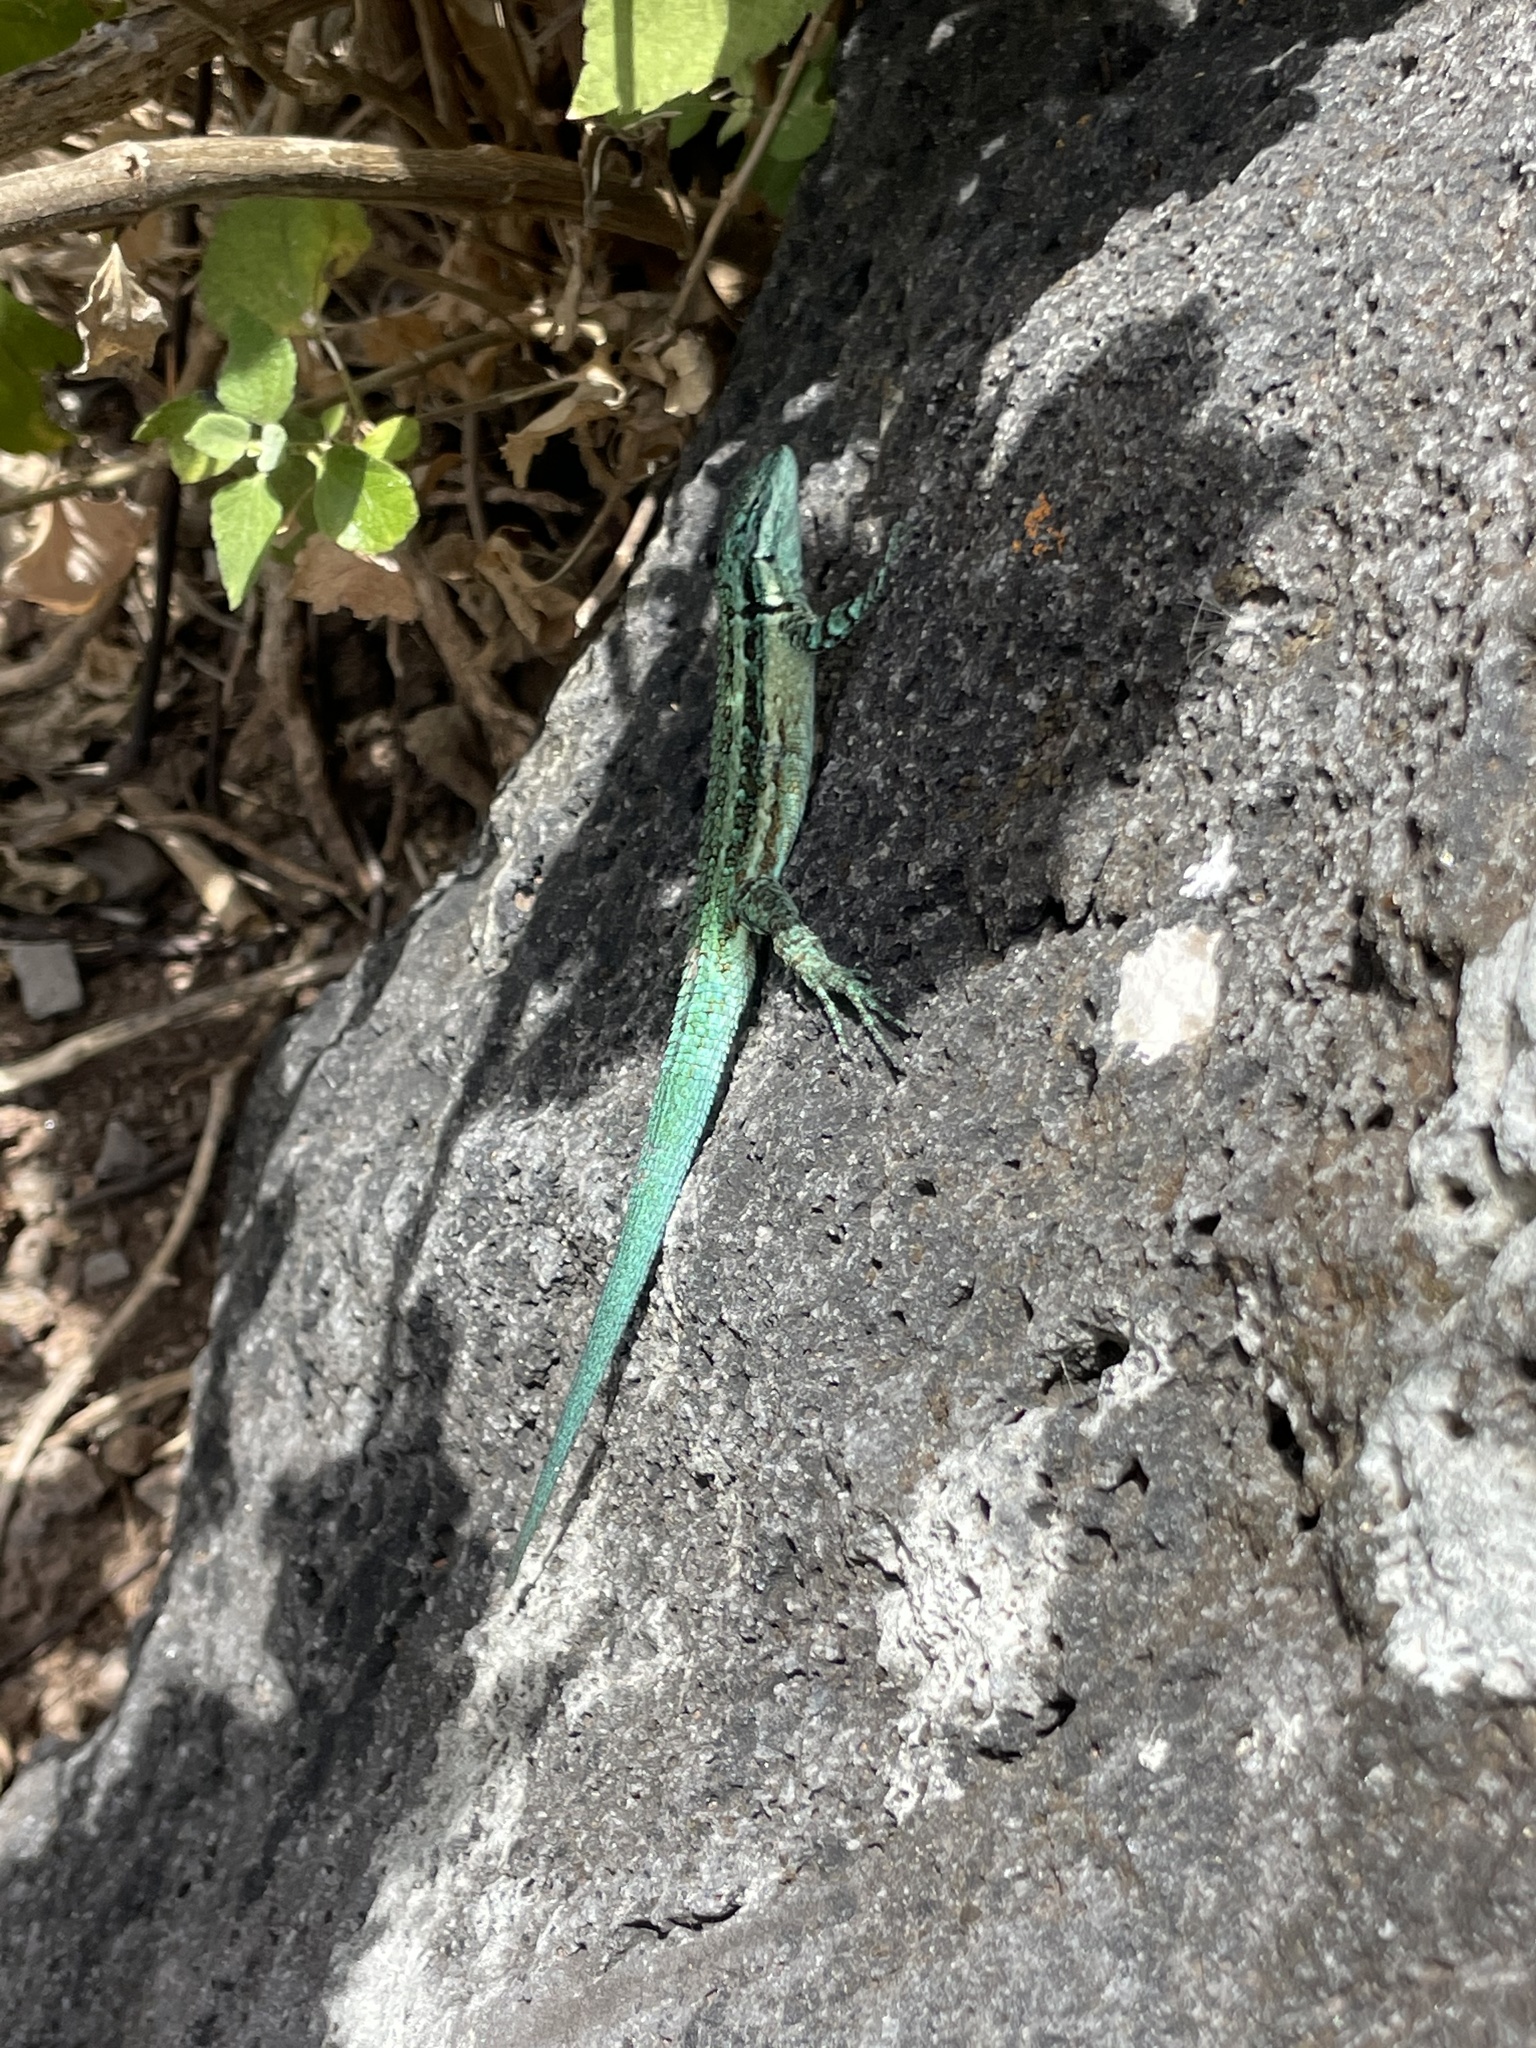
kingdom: Animalia
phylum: Chordata
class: Squamata
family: Phrynosomatidae
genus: Urosaurus
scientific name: Urosaurus clarionensis
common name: Clarion island tree lizard
